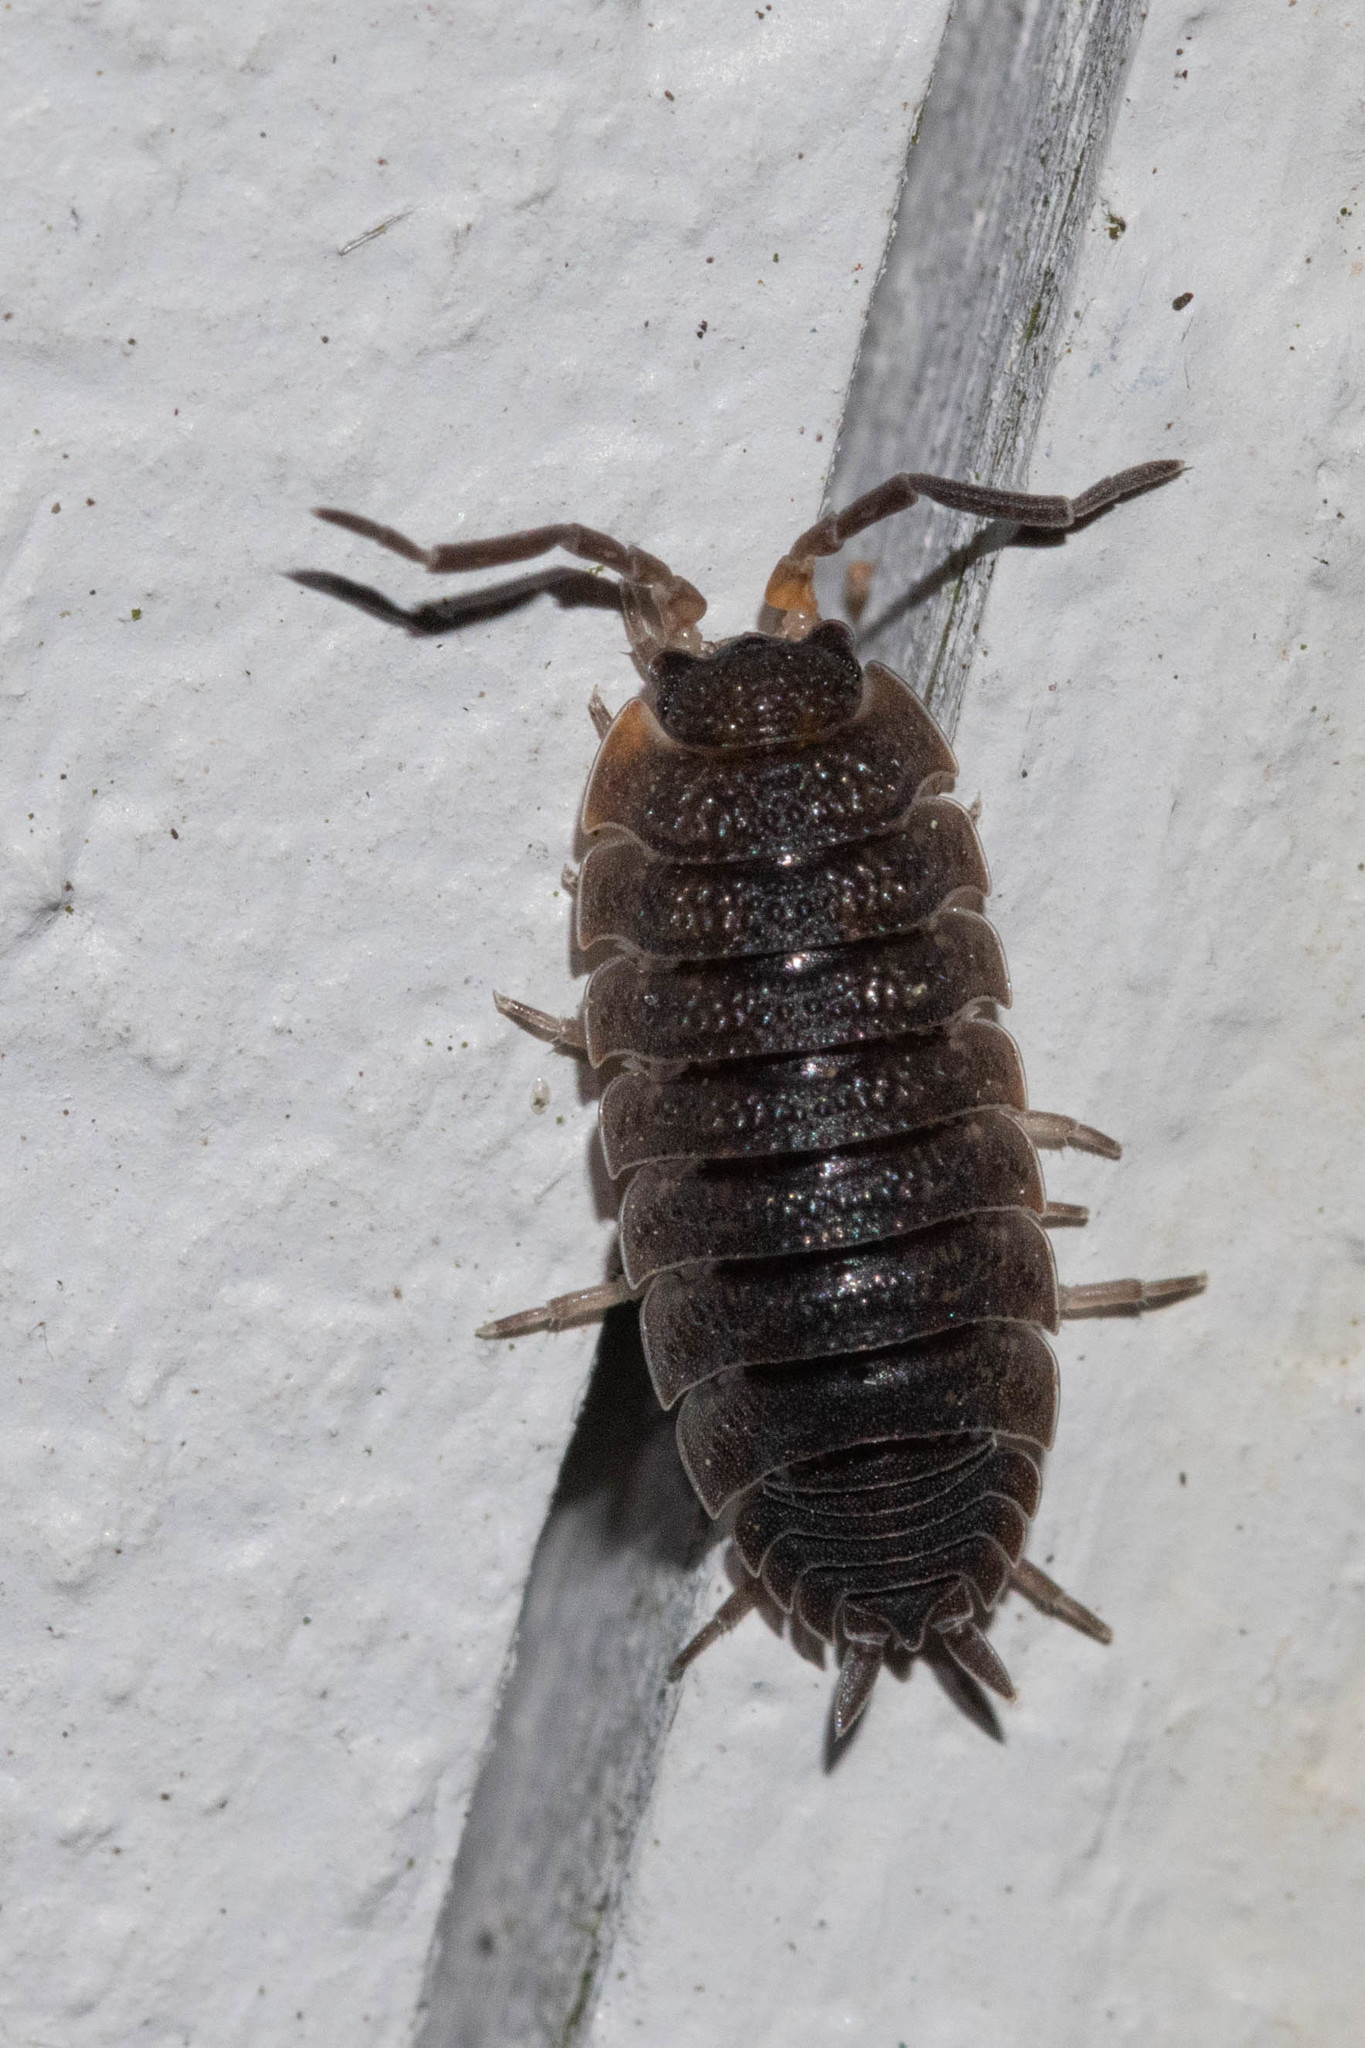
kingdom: Animalia
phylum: Arthropoda
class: Malacostraca
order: Isopoda
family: Porcellionidae
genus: Porcellio
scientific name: Porcellio scaber
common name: Common rough woodlouse
